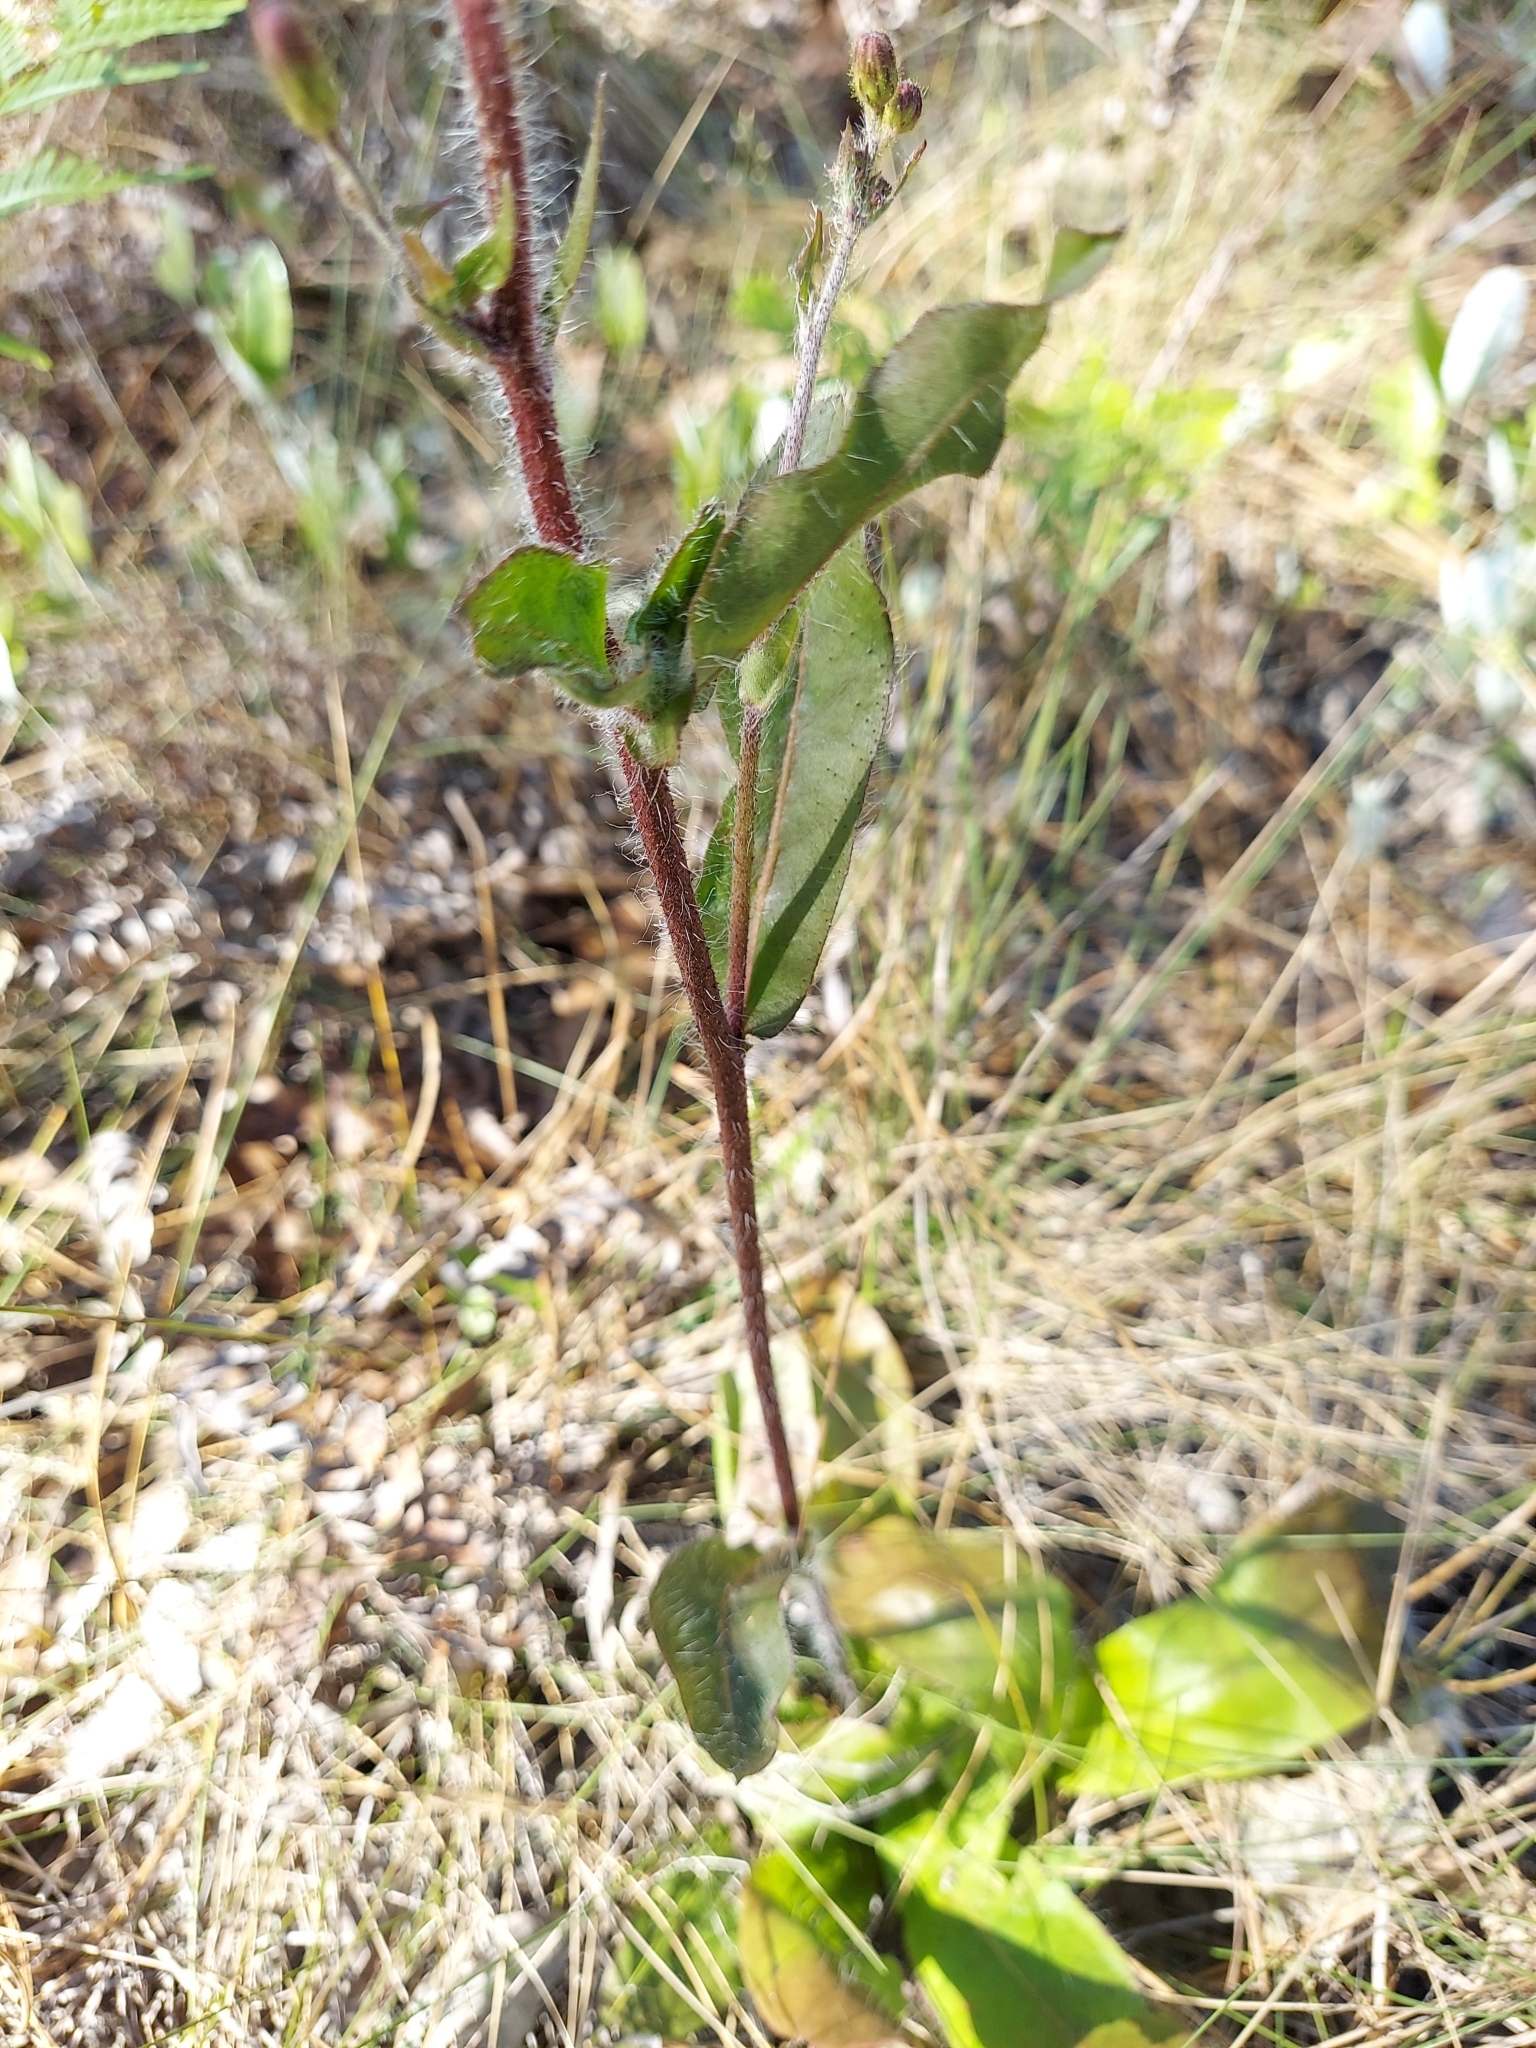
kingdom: Plantae
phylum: Tracheophyta
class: Magnoliopsida
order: Asterales
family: Asteraceae
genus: Hieracium
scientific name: Hieracium megacephalum
